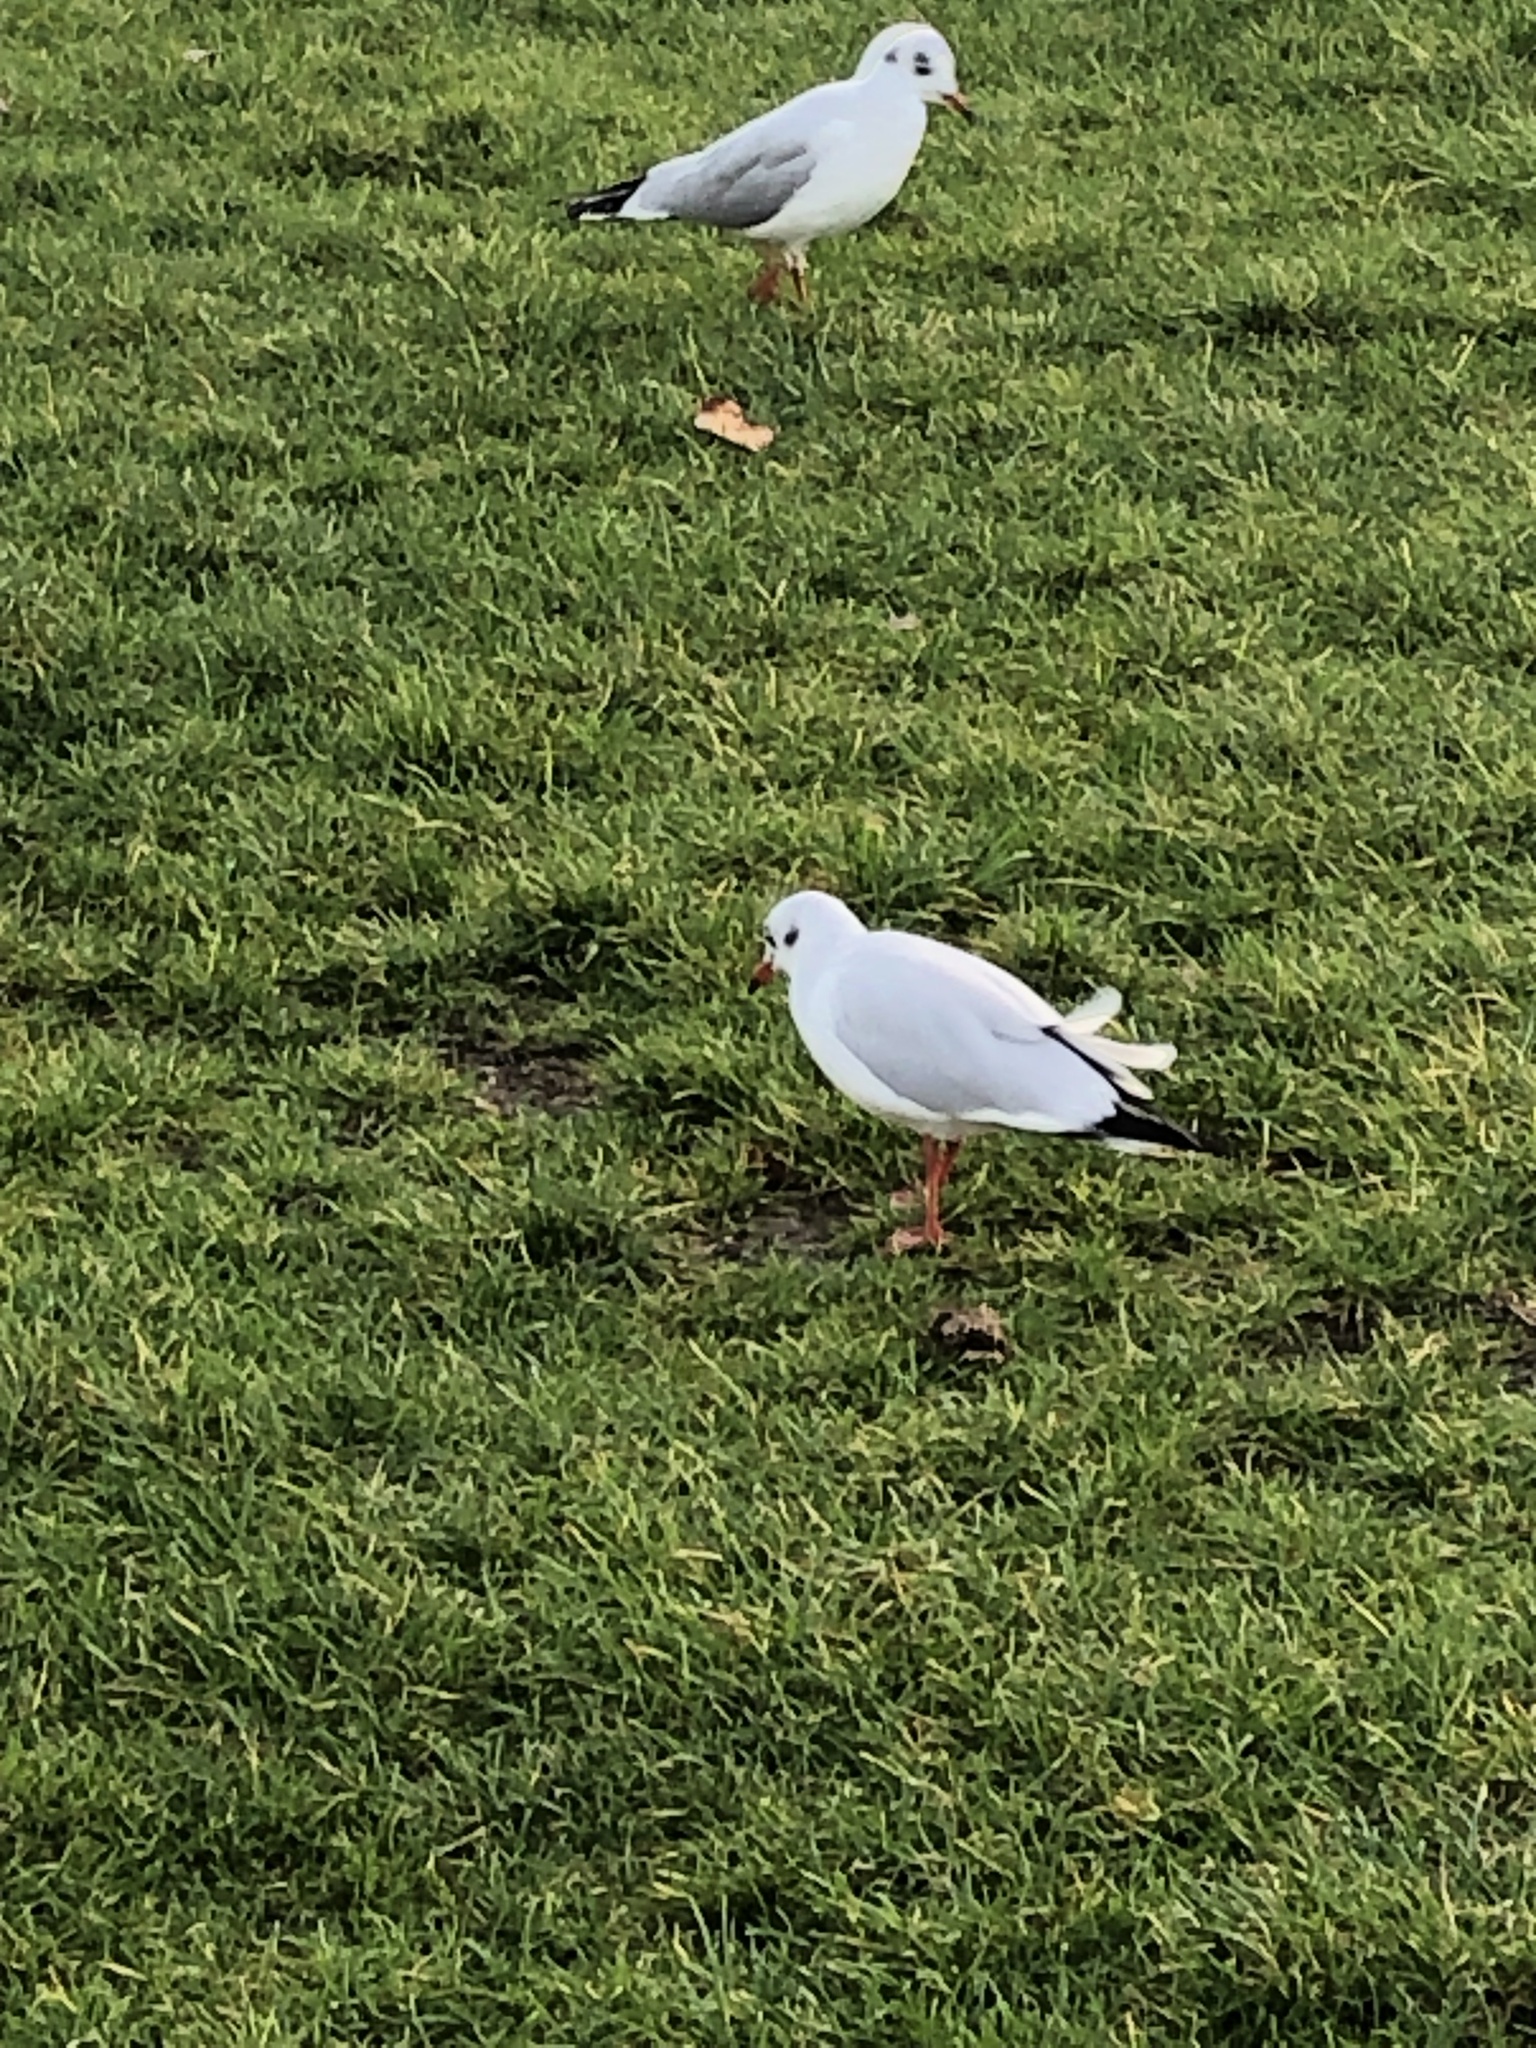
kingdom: Animalia
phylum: Chordata
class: Aves
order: Charadriiformes
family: Laridae
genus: Chroicocephalus
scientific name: Chroicocephalus ridibundus
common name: Black-headed gull
